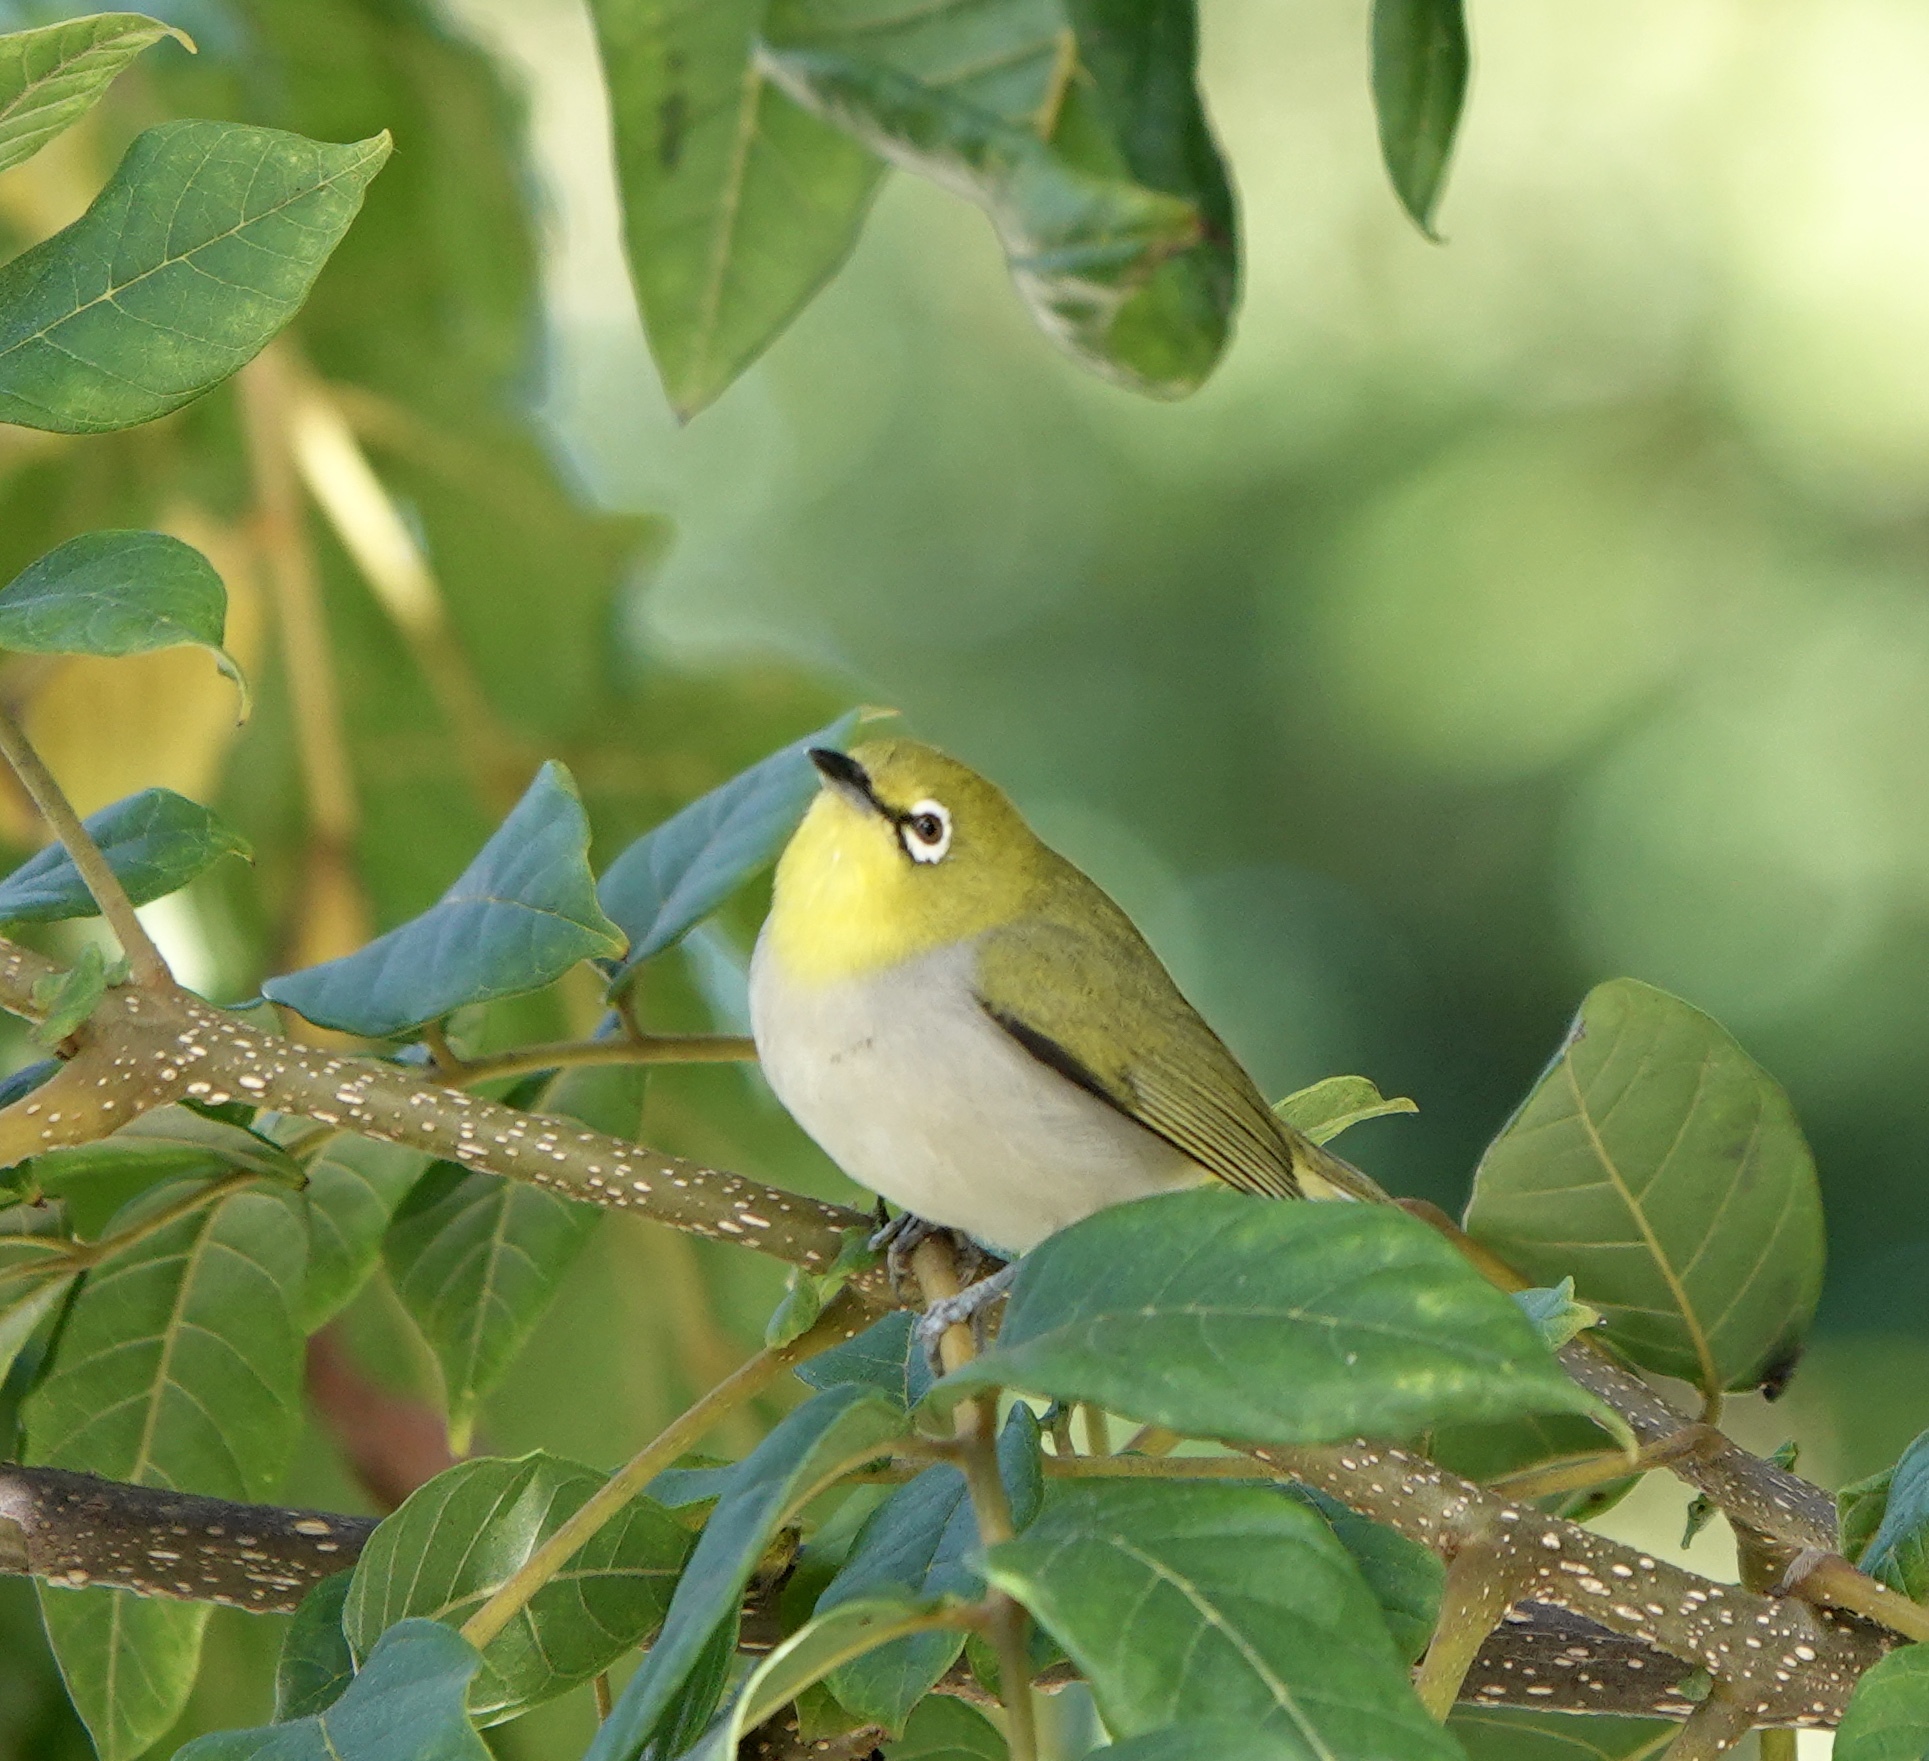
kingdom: Animalia
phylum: Chordata
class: Aves
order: Passeriformes
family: Zosteropidae
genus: Zosterops
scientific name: Zosterops simplex
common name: Swinhoe's white-eye
